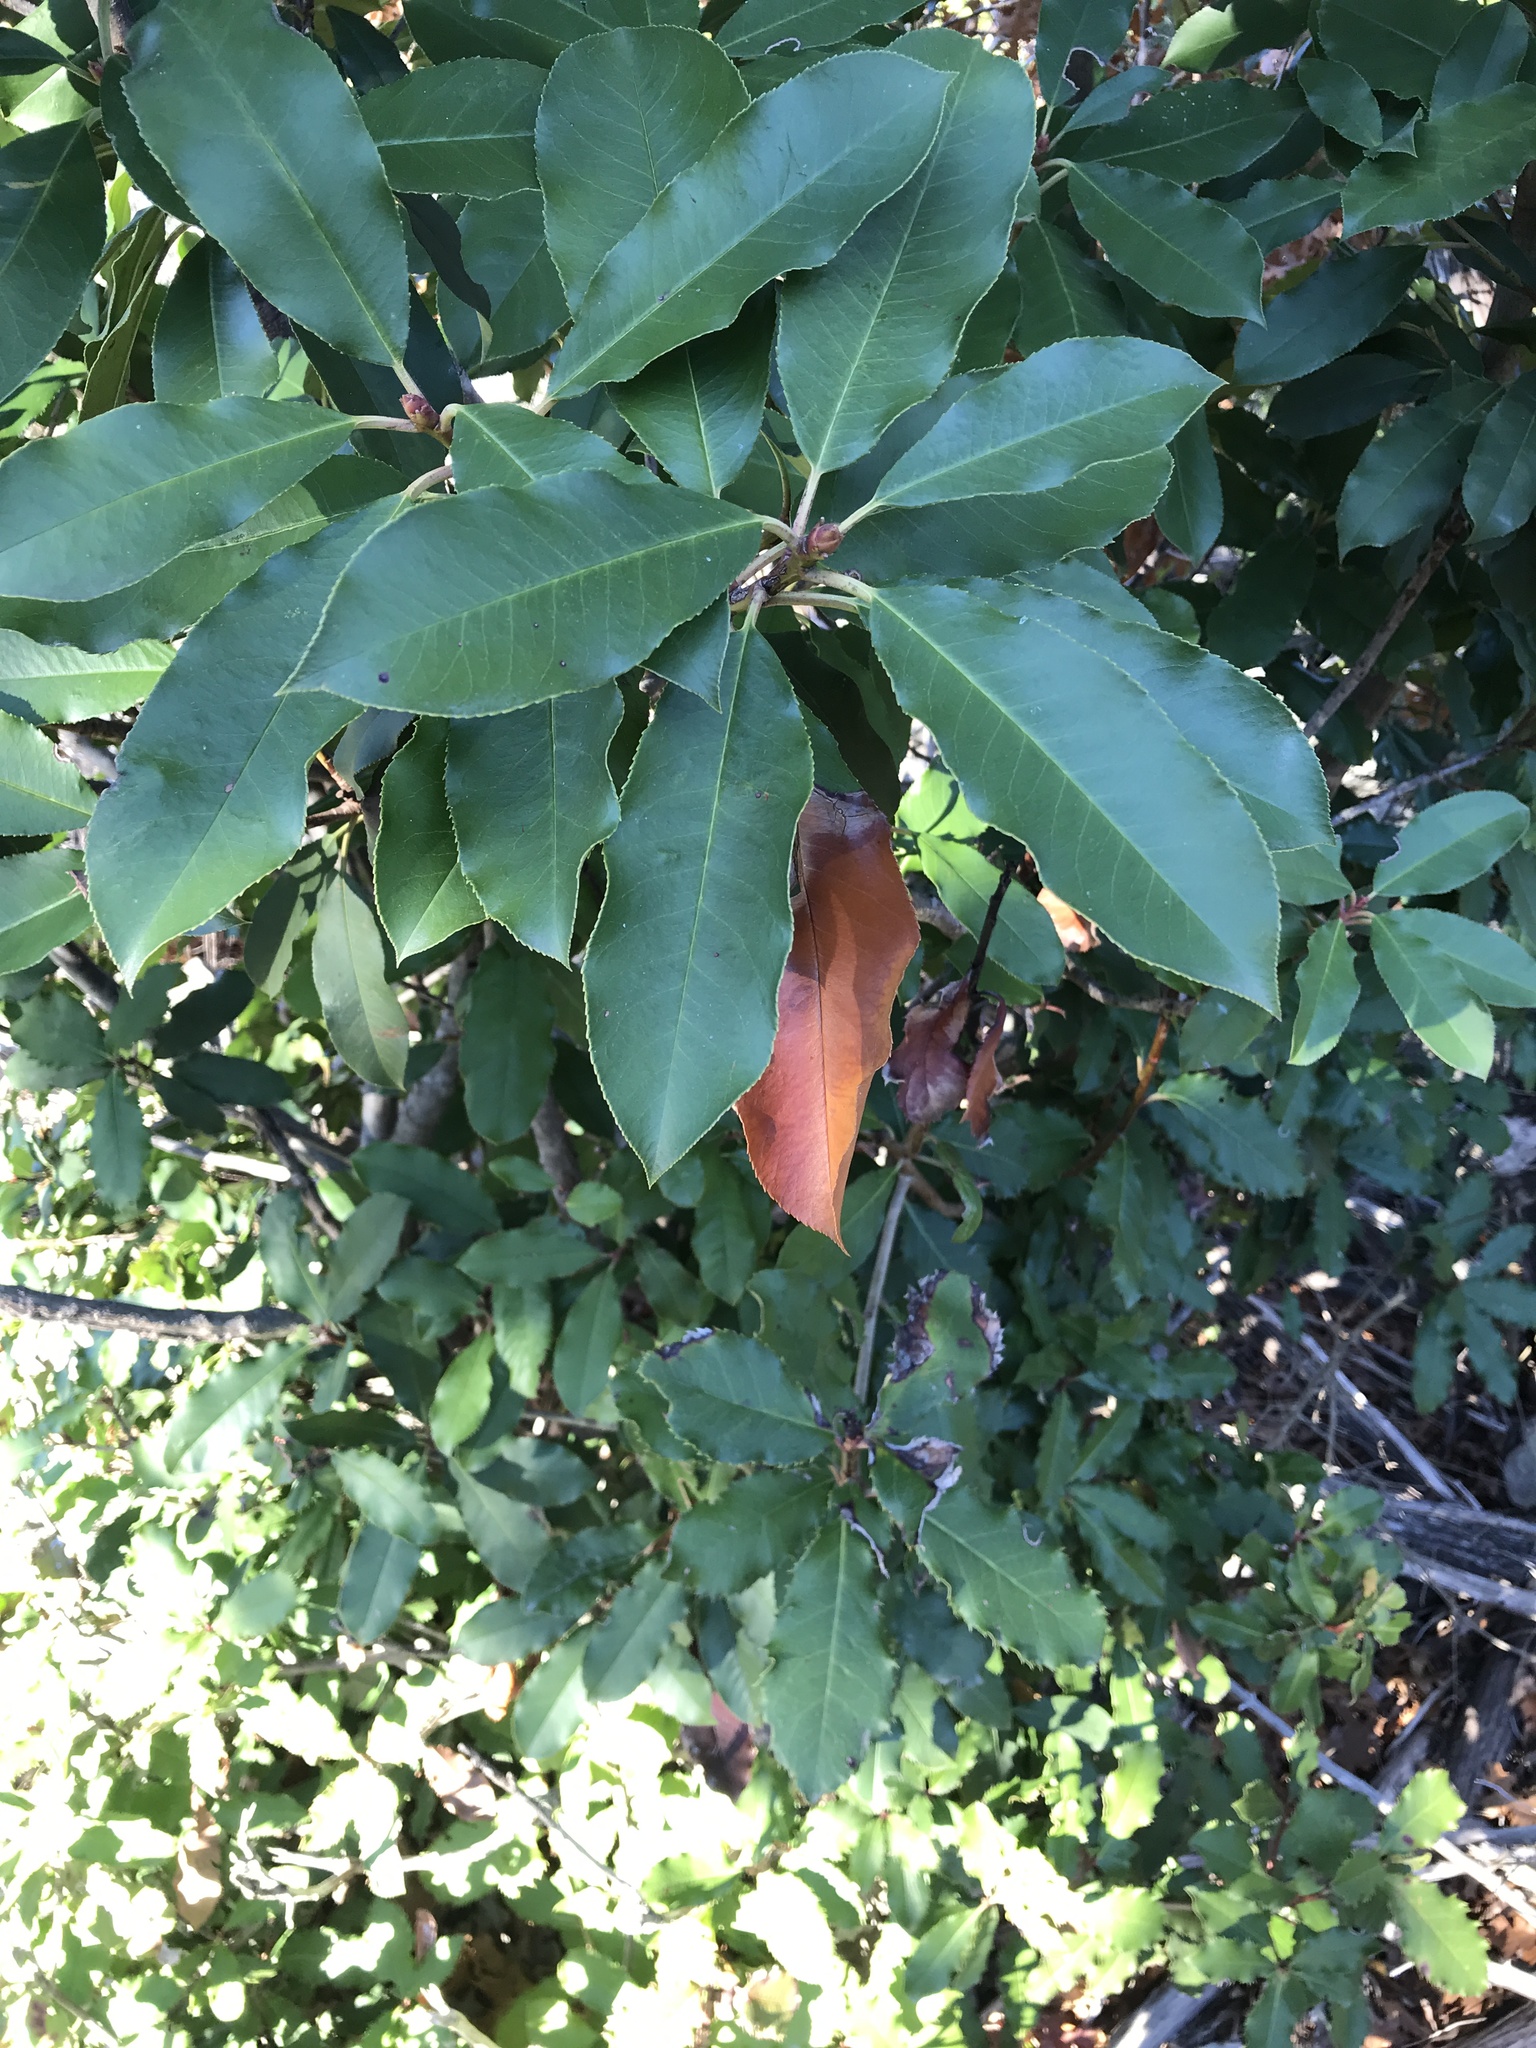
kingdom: Plantae
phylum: Tracheophyta
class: Magnoliopsida
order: Rosales
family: Rosaceae
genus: Photinia
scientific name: Photinia serratifolia
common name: Taiwanese photinia
